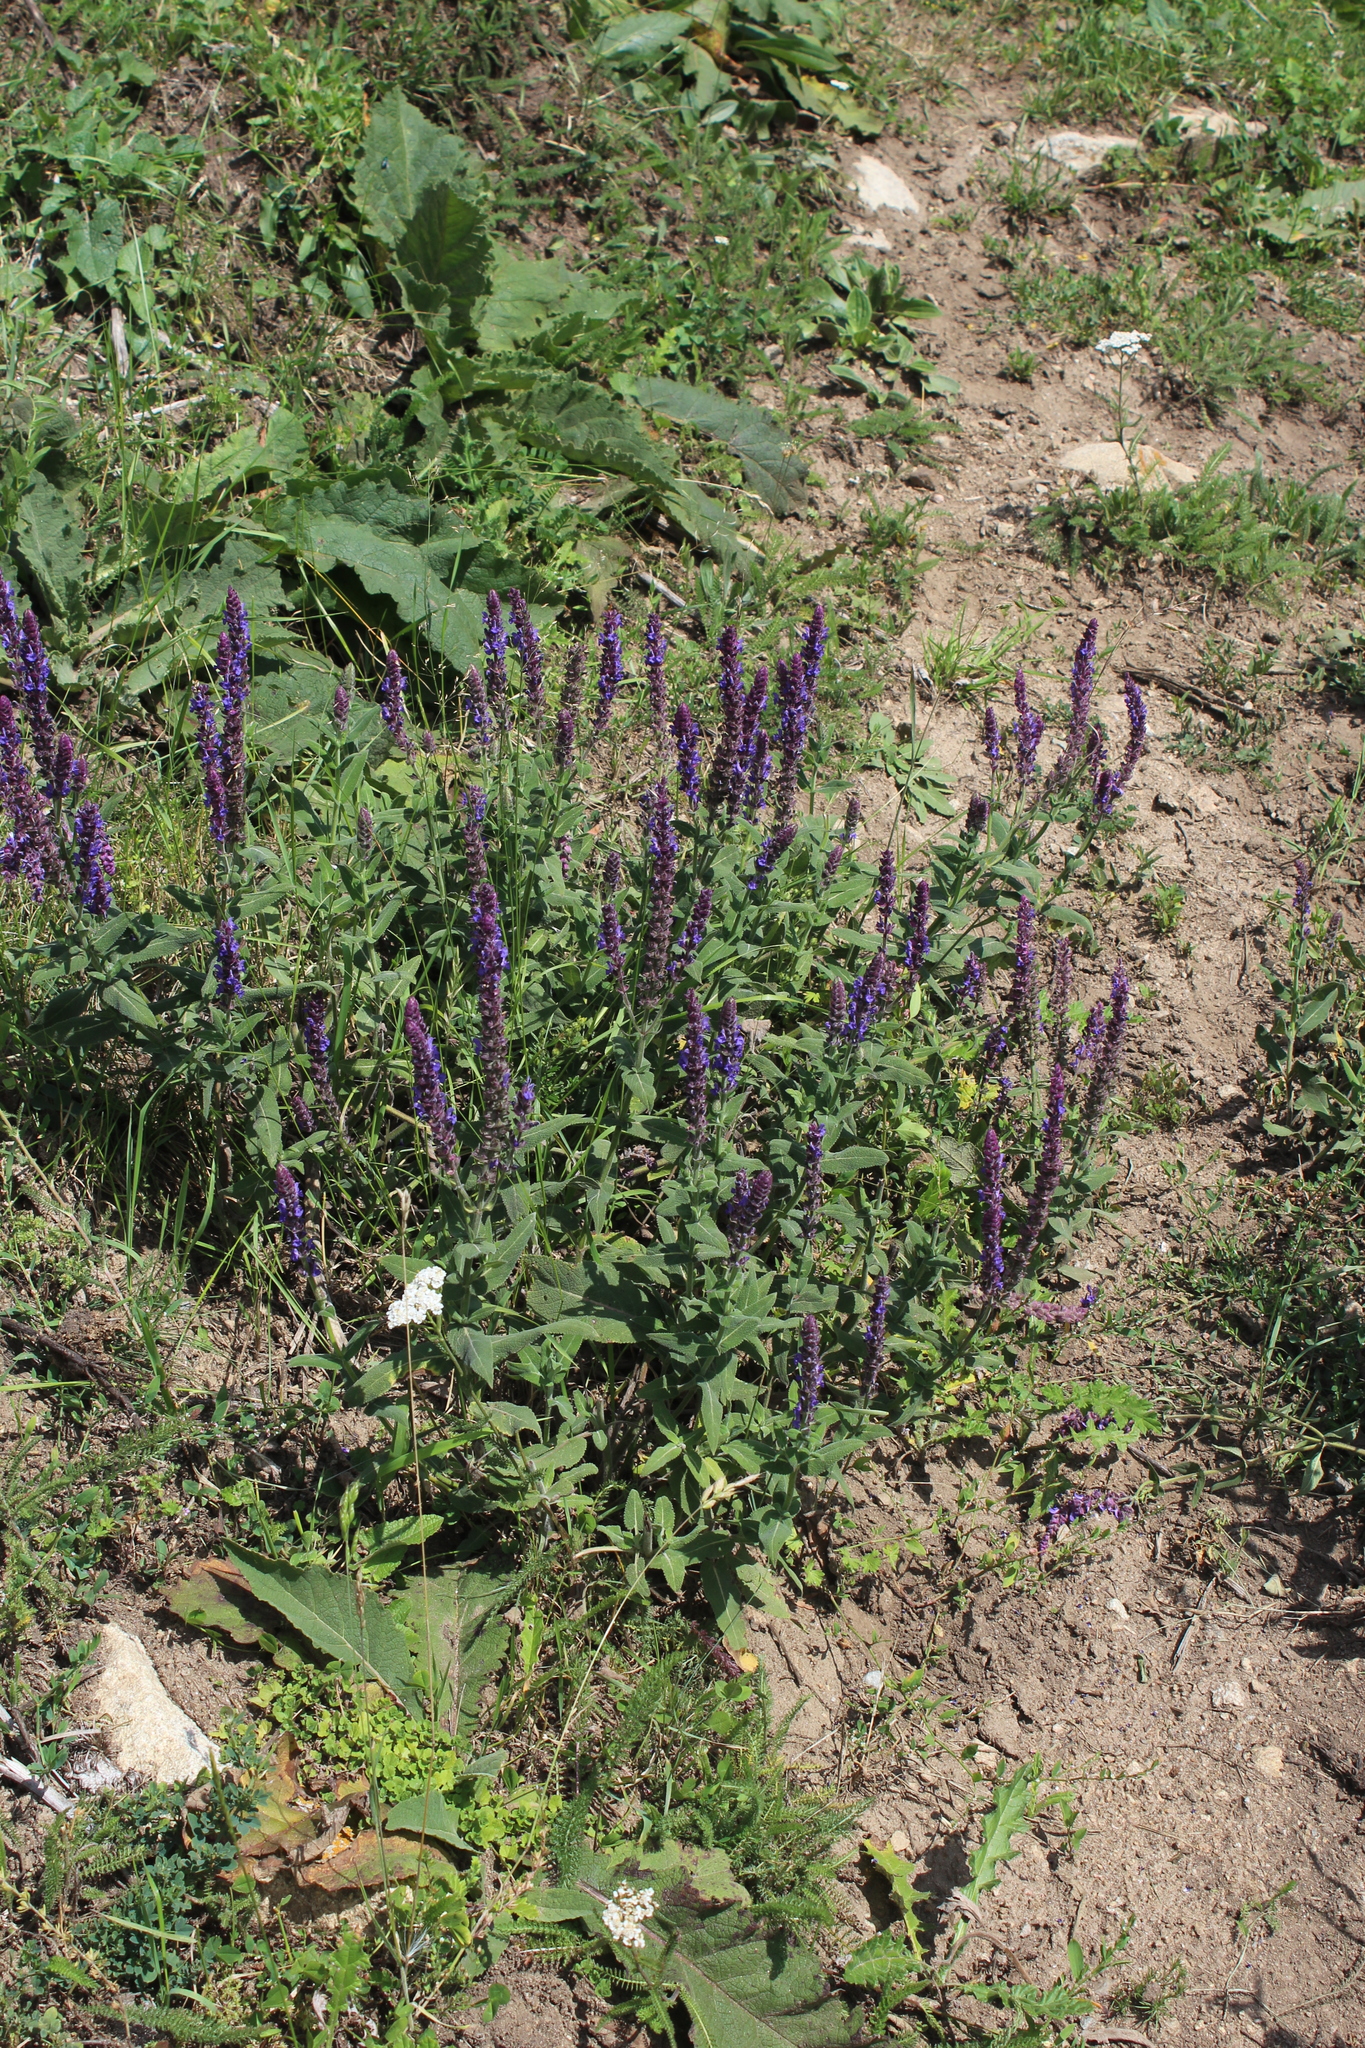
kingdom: Plantae
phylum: Tracheophyta
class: Magnoliopsida
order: Lamiales
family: Lamiaceae
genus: Salvia
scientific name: Salvia nemorosa
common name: Balkan clary
